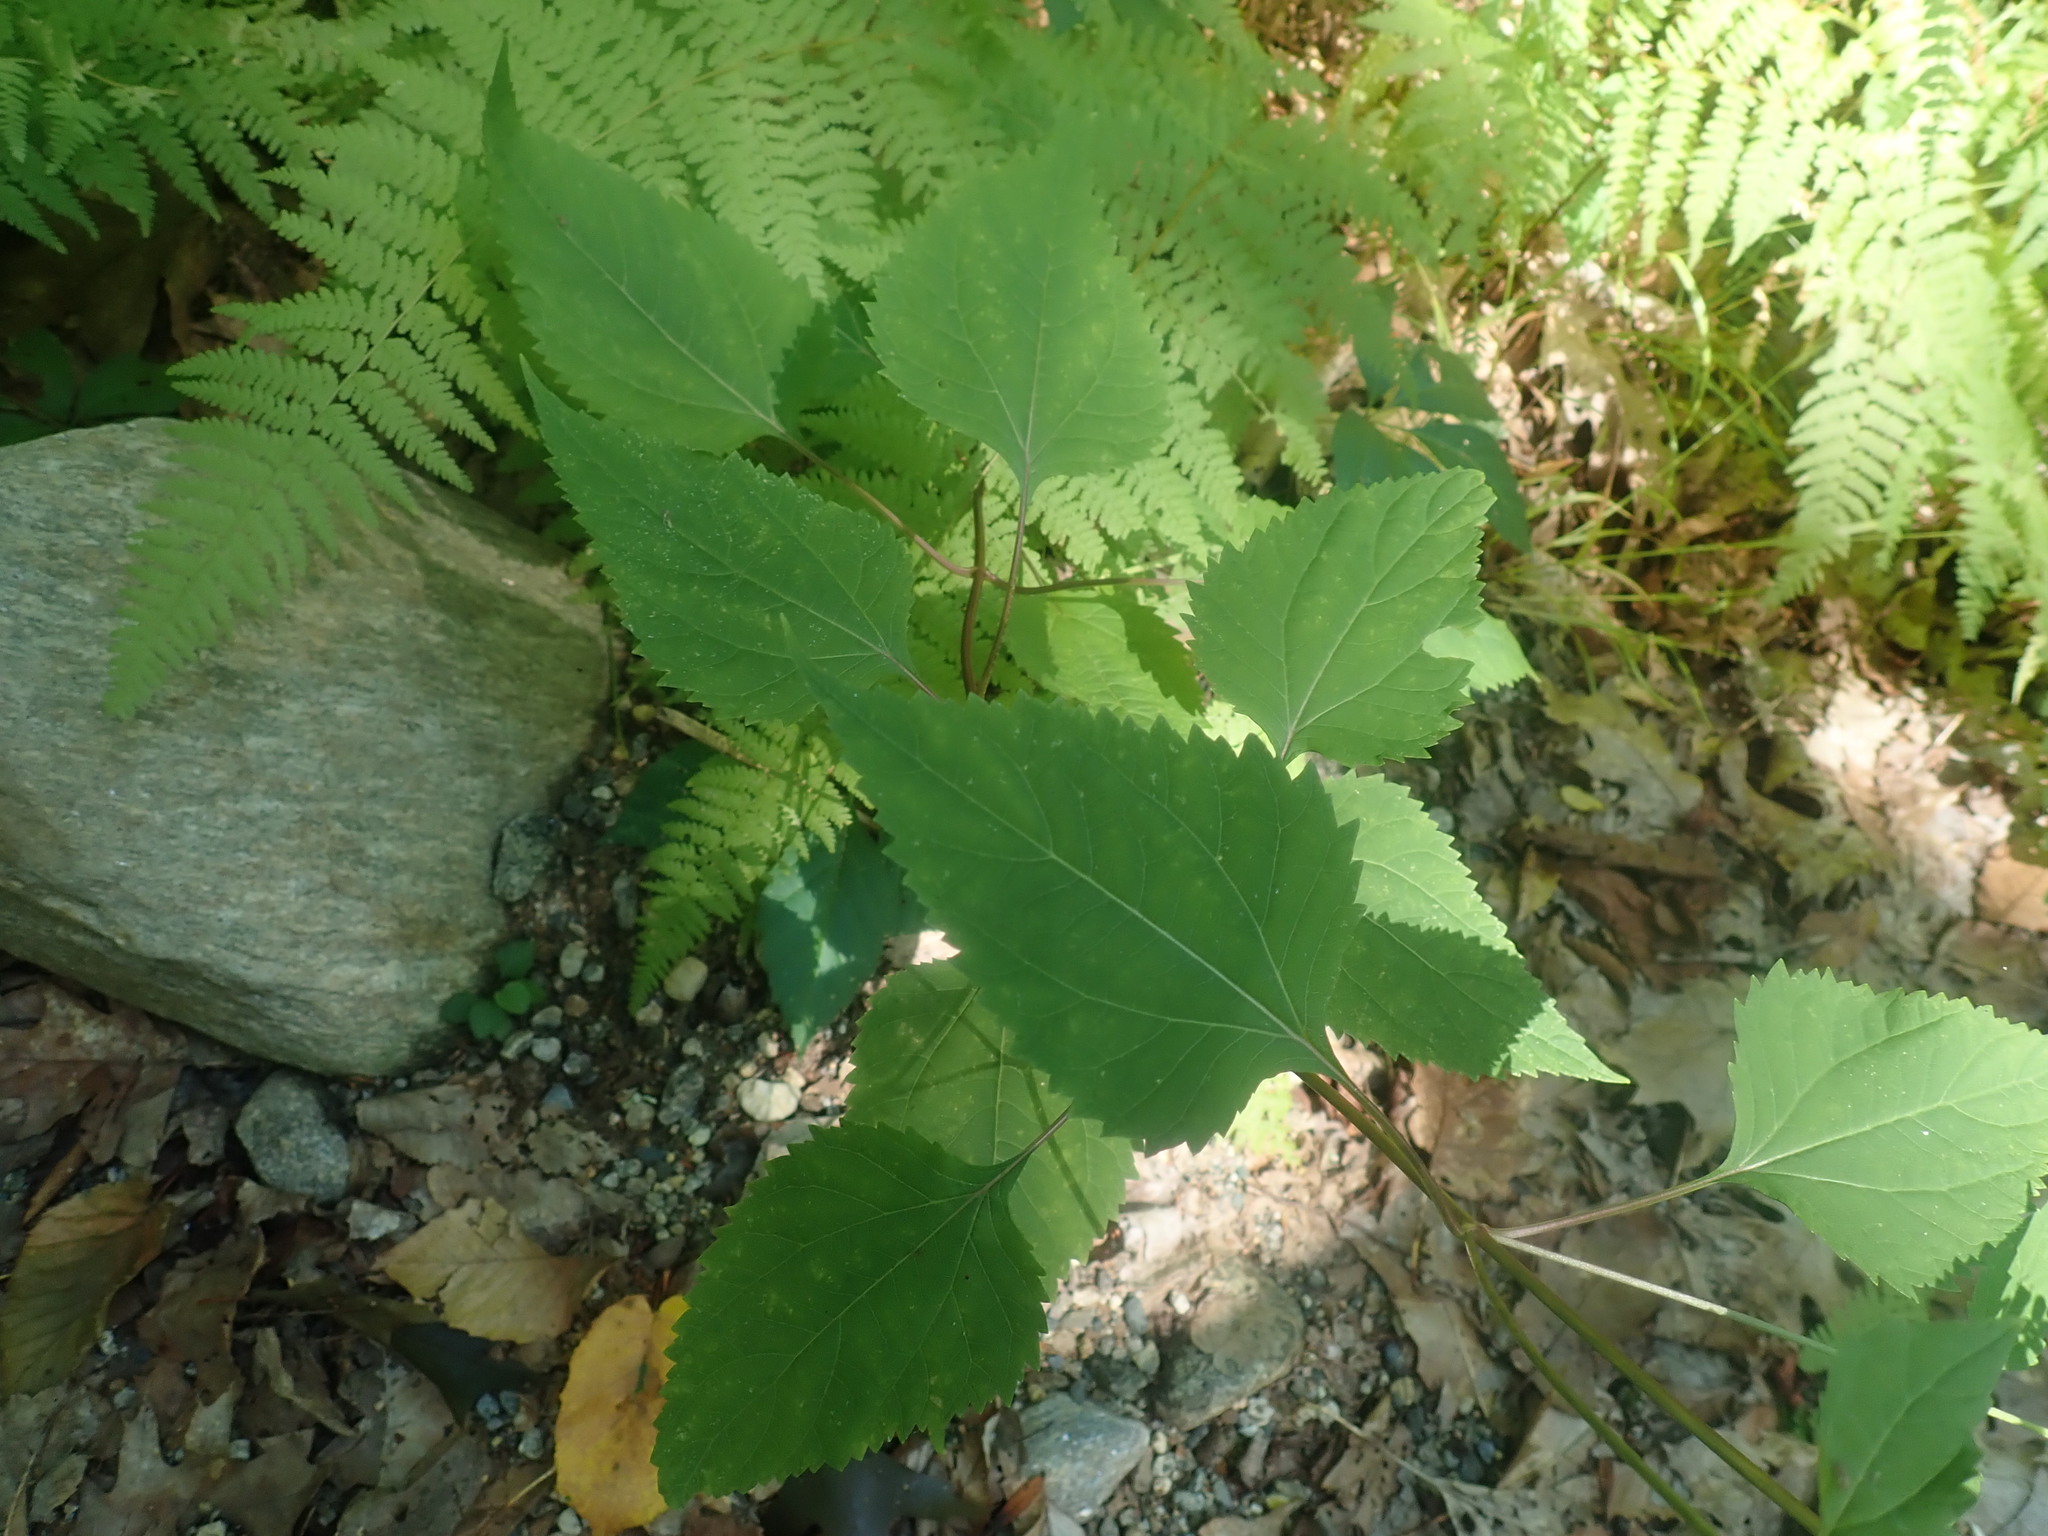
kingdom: Plantae
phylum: Tracheophyta
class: Magnoliopsida
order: Asterales
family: Asteraceae
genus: Ageratina
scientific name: Ageratina altissima
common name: White snakeroot
